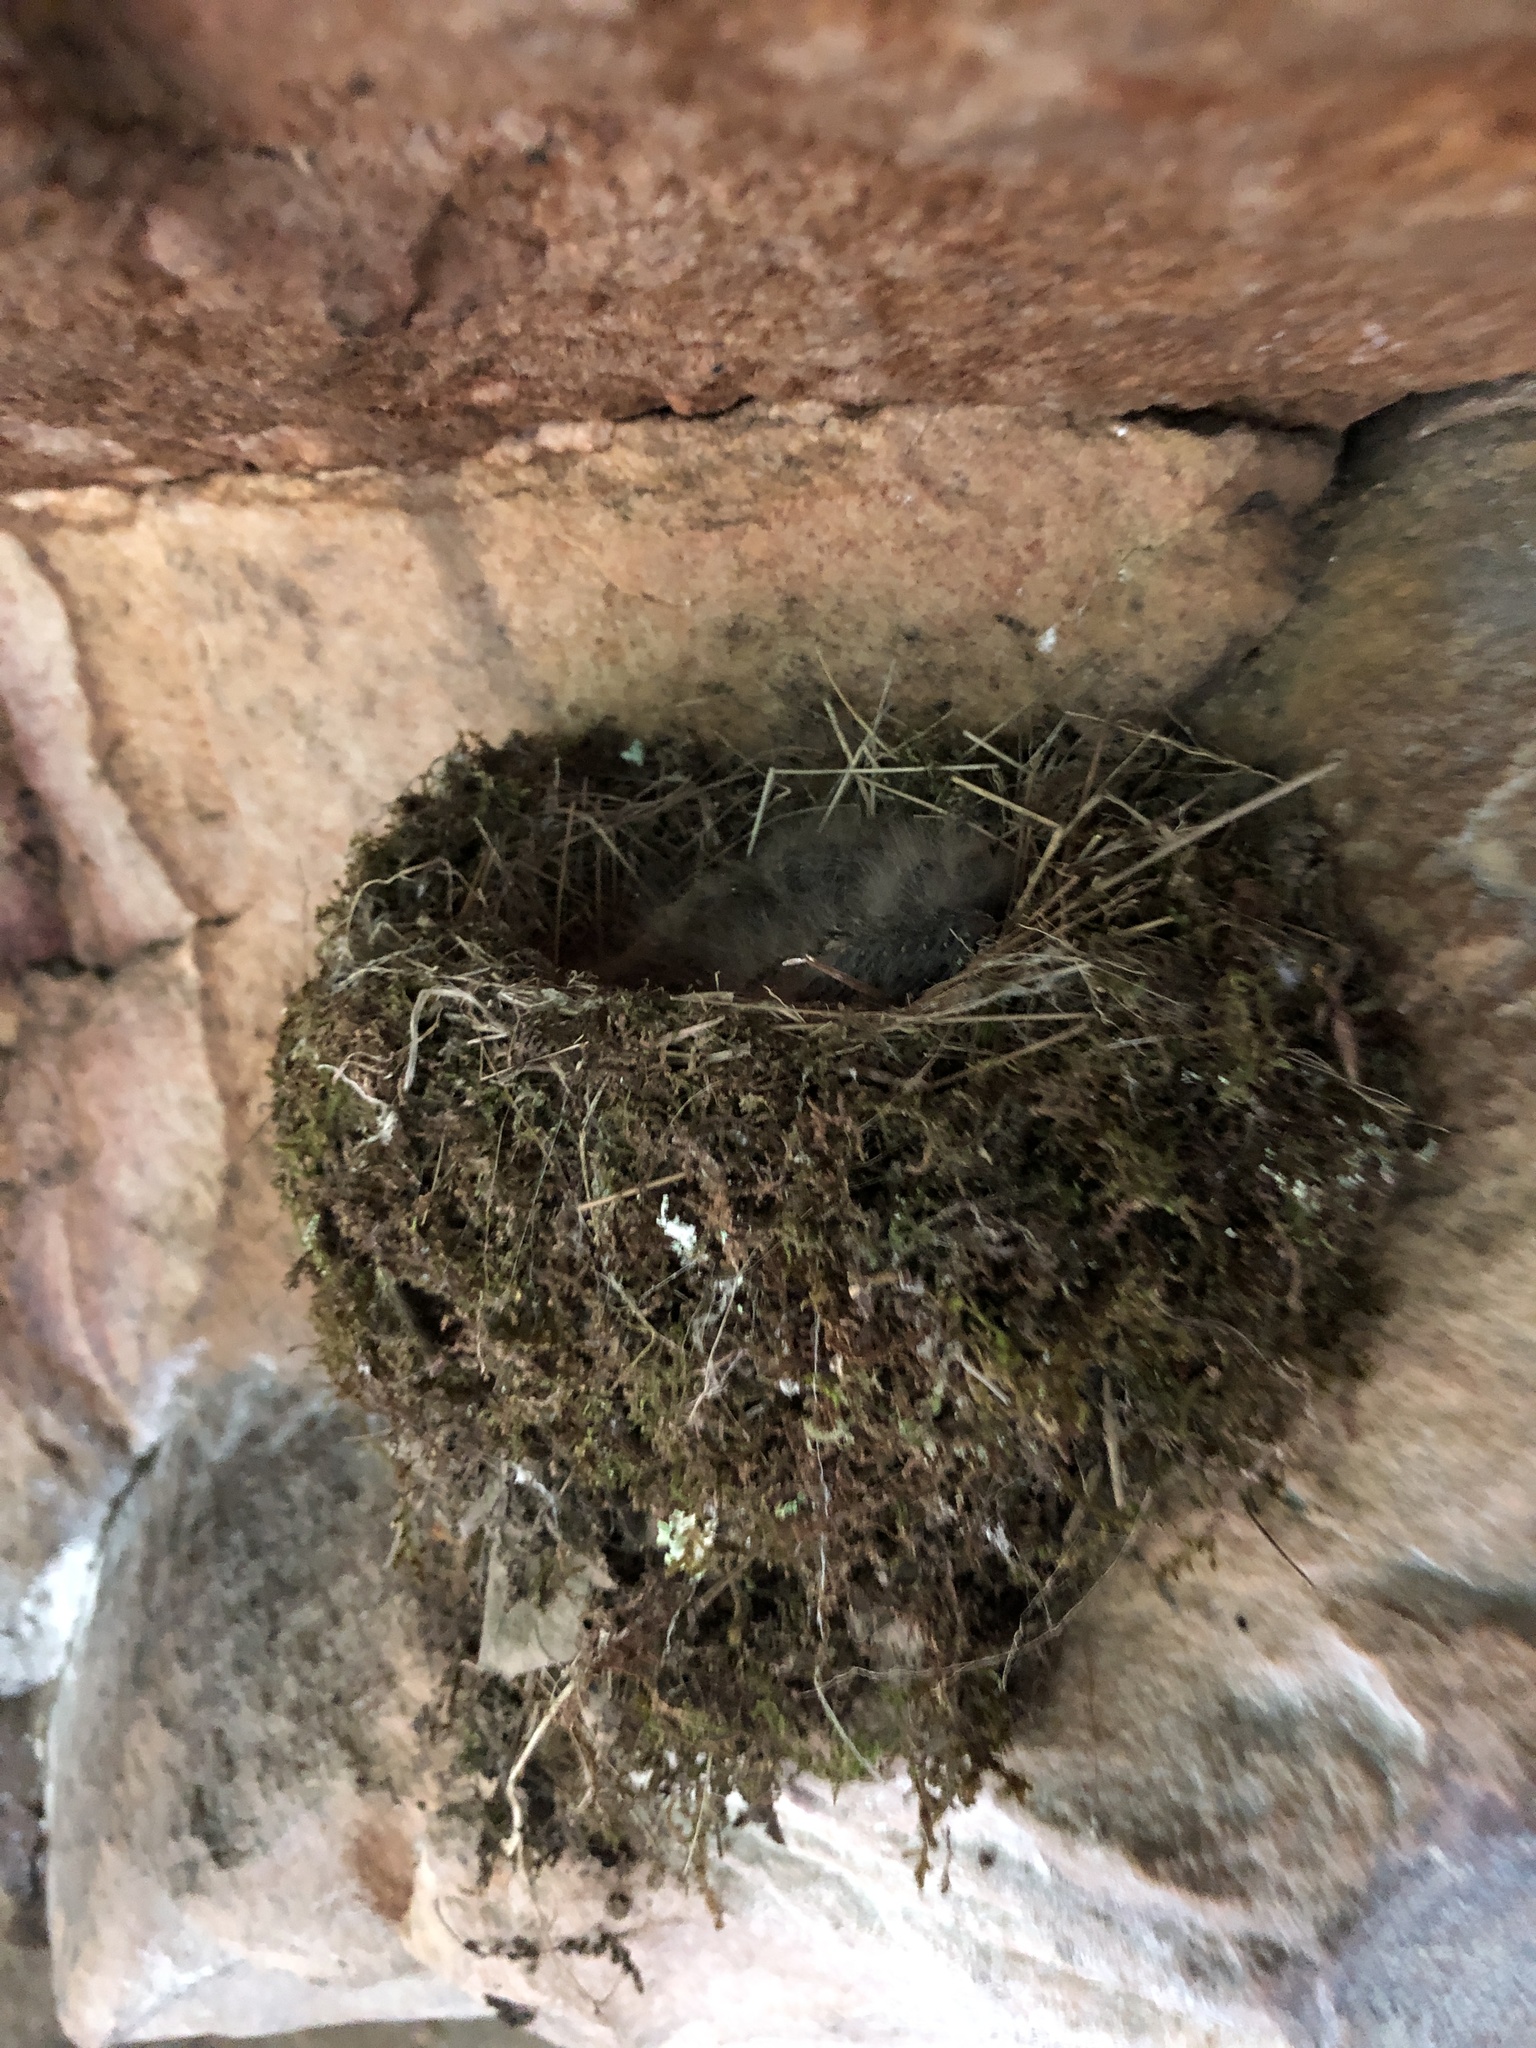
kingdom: Animalia
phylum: Chordata
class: Aves
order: Passeriformes
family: Tyrannidae
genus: Sayornis
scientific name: Sayornis phoebe
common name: Eastern phoebe
